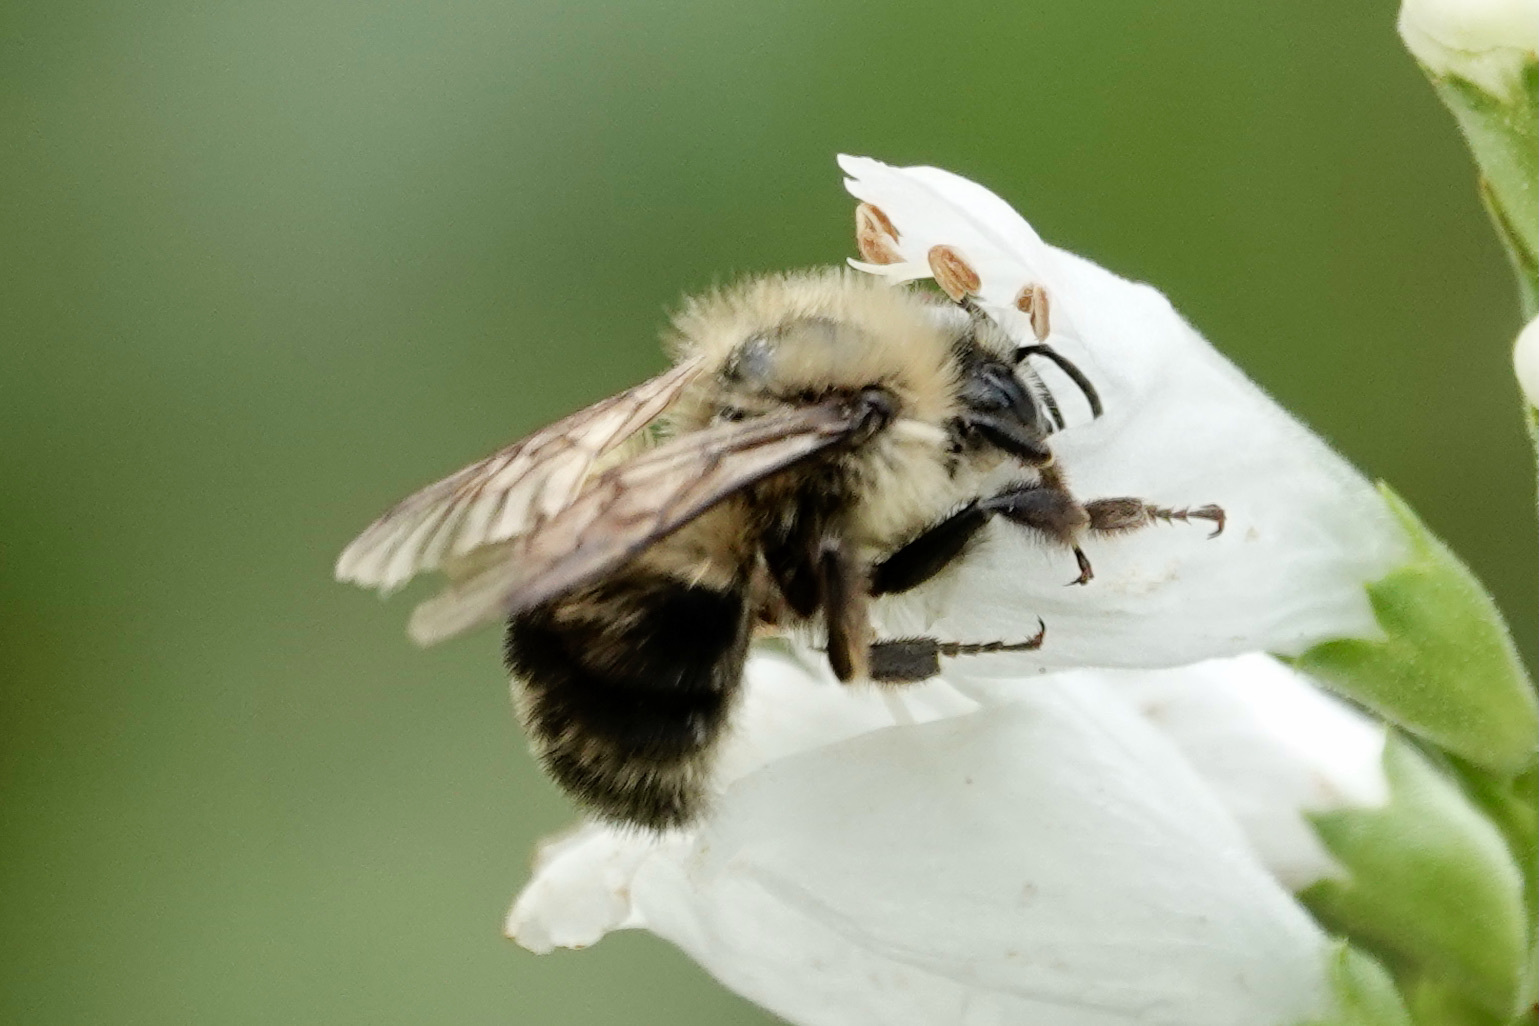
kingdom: Animalia
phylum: Arthropoda
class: Insecta
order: Hymenoptera
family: Apidae
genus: Bombus
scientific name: Bombus impatiens
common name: Common eastern bumble bee
